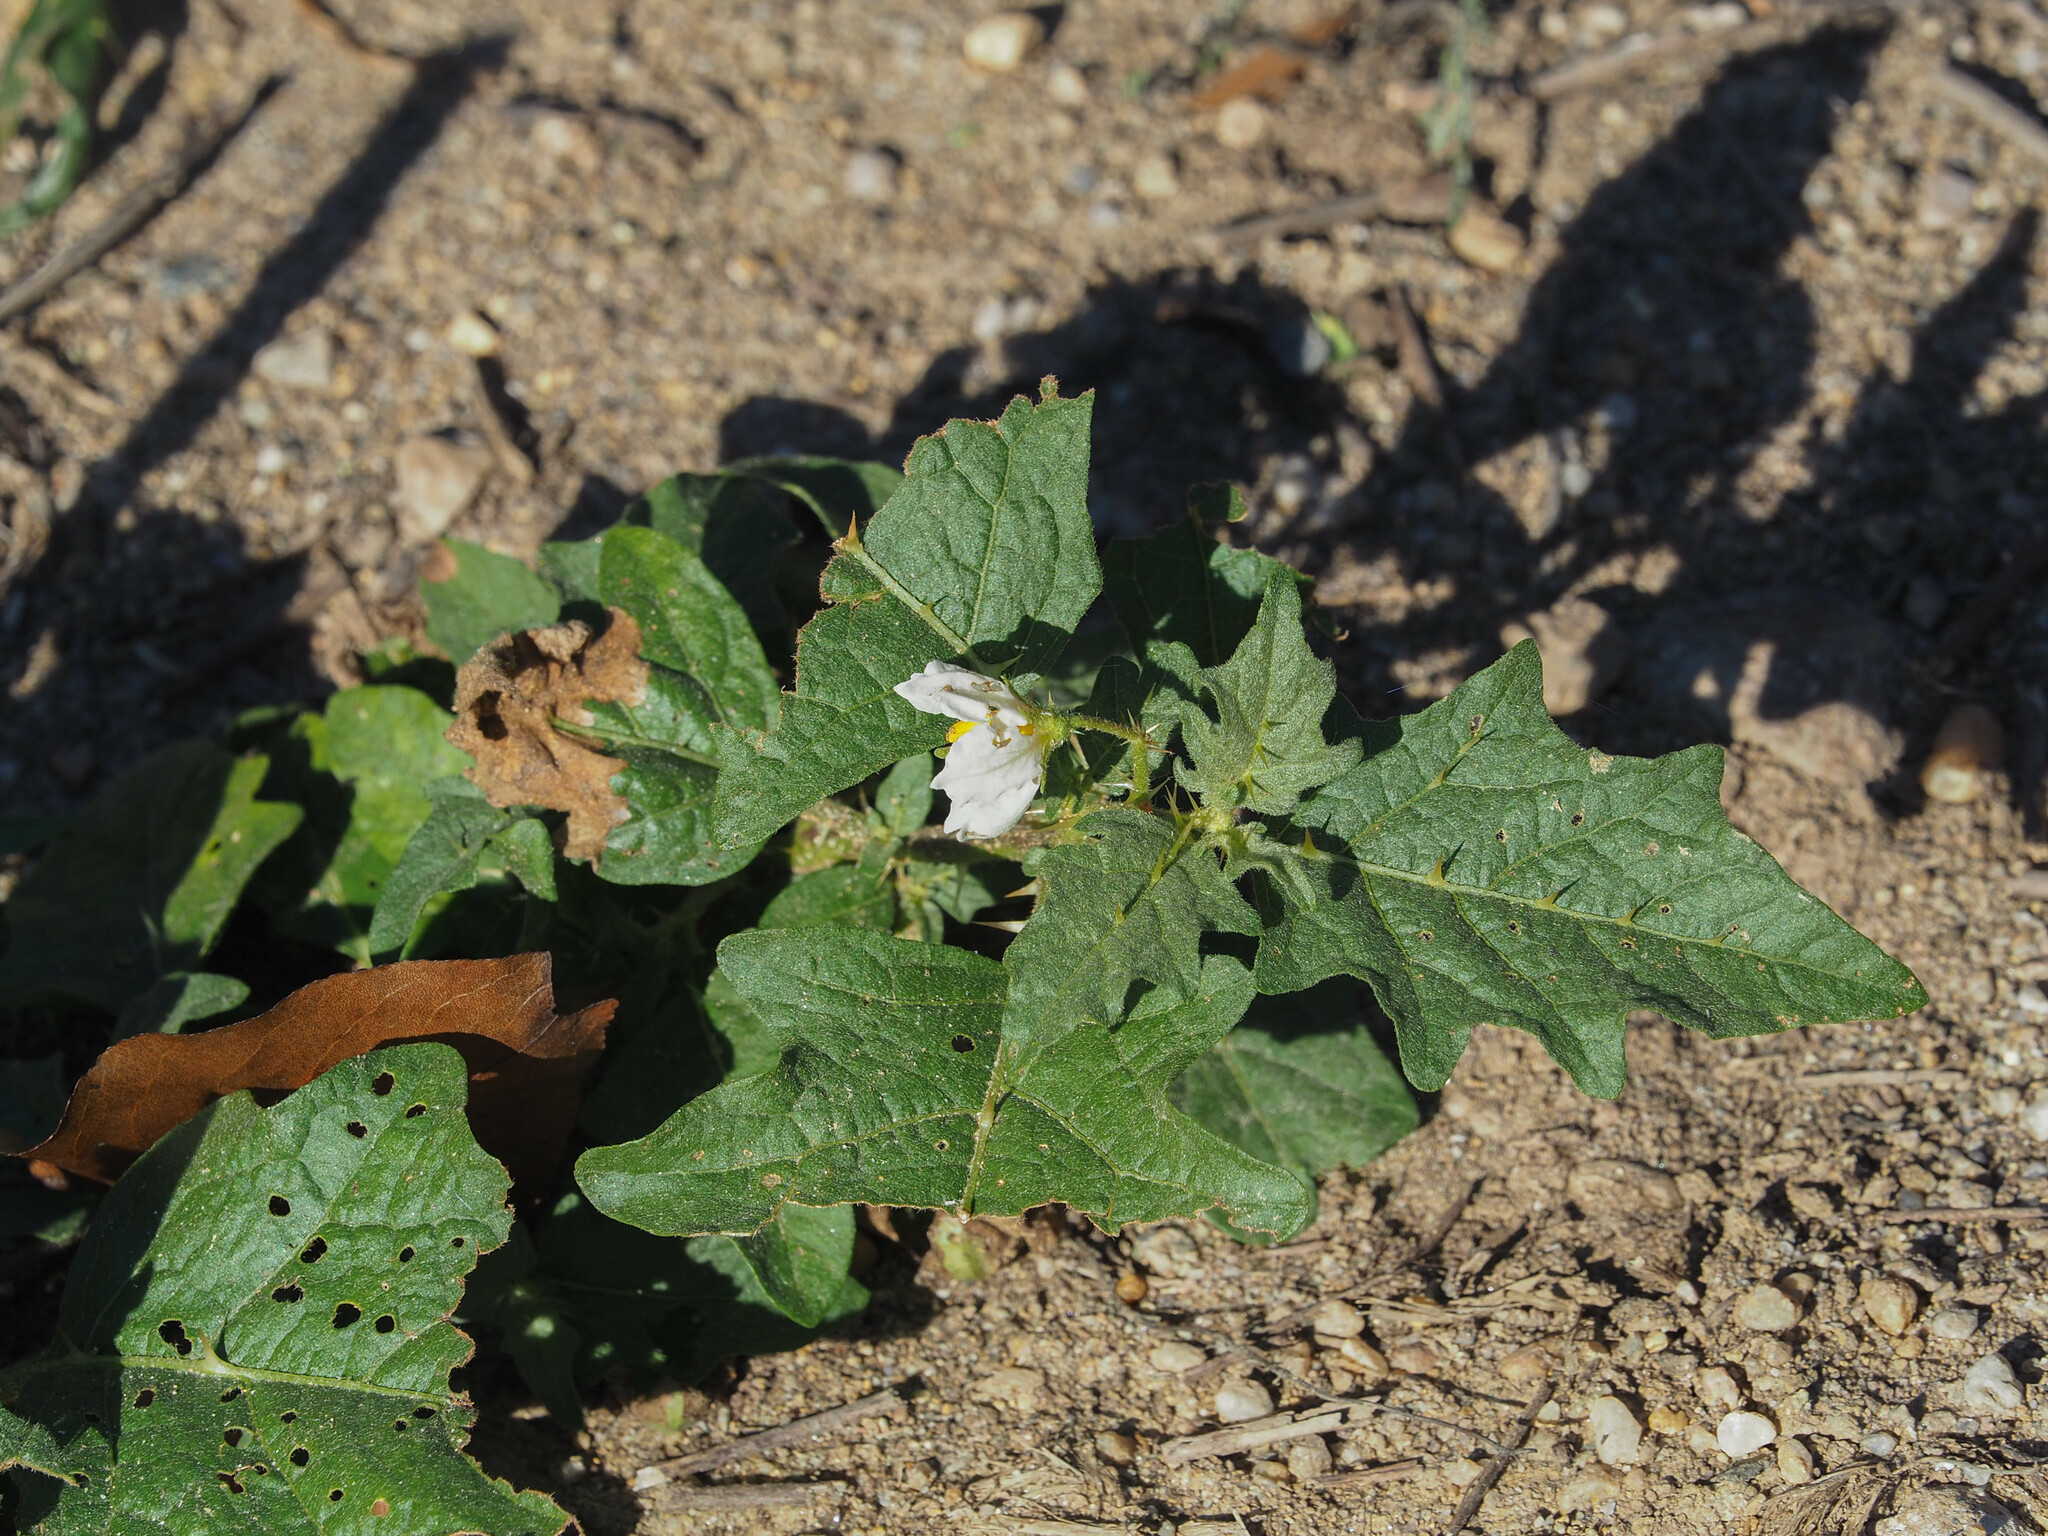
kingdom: Plantae
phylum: Tracheophyta
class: Magnoliopsida
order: Solanales
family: Solanaceae
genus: Solanum
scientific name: Solanum carolinense
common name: Horse-nettle
